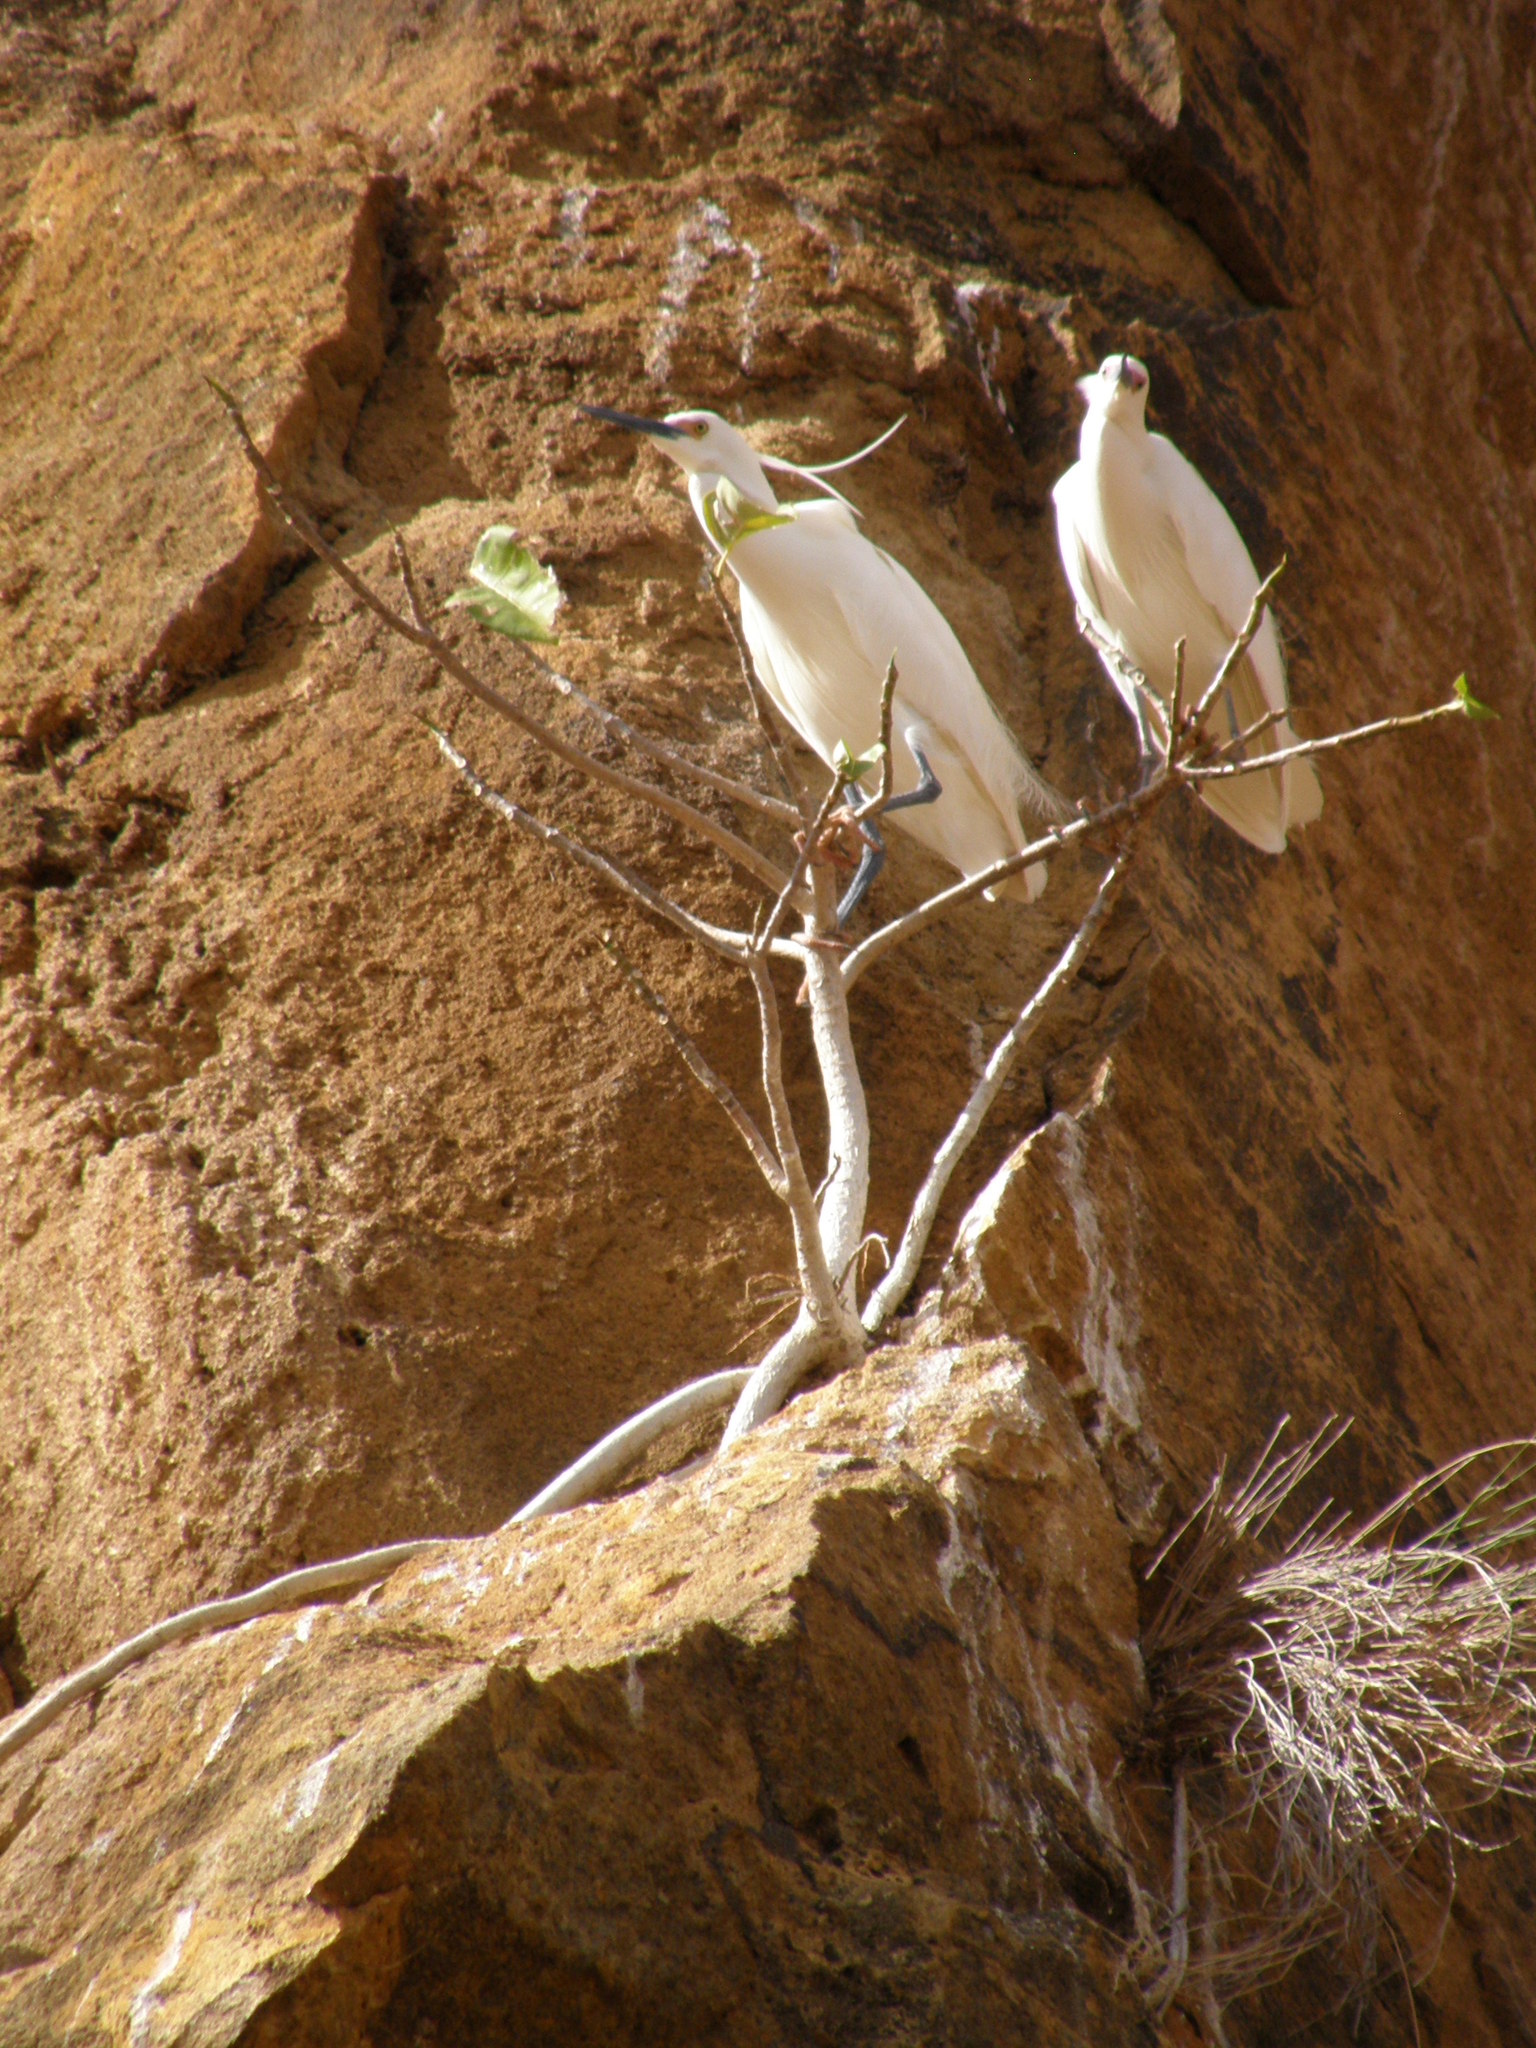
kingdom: Animalia
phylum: Chordata
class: Aves
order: Pelecaniformes
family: Ardeidae
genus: Egretta
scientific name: Egretta dimorpha
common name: Dimorphic egret
